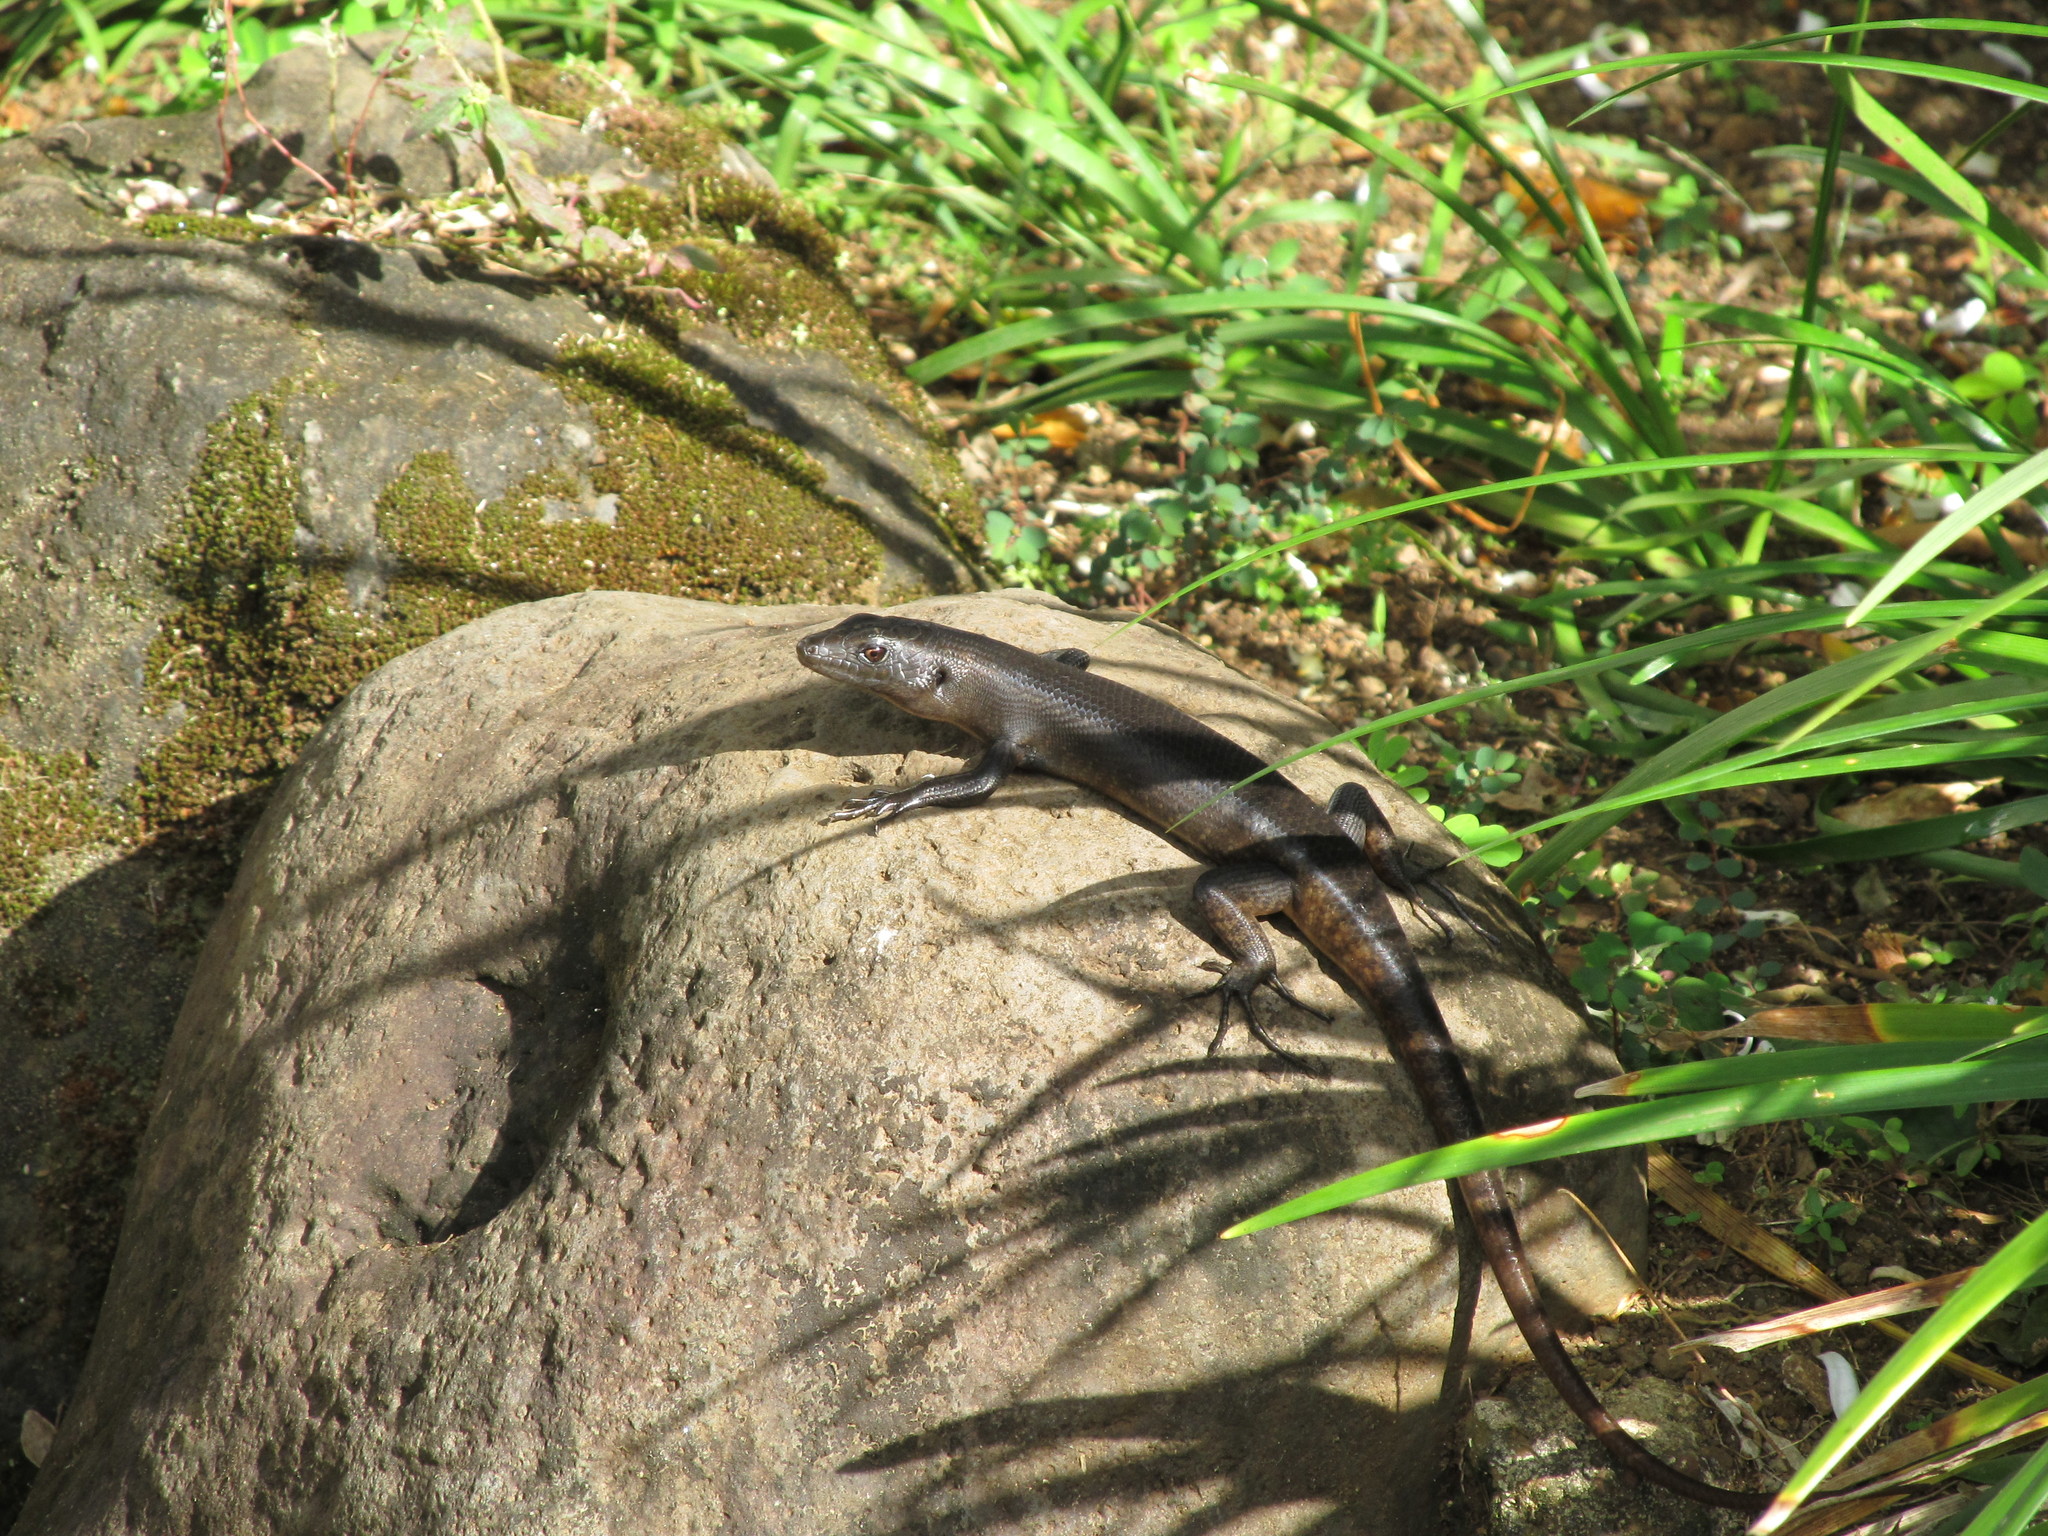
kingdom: Animalia
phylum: Chordata
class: Squamata
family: Scincidae
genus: Emoia
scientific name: Emoia nigra
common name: Black emo skink
